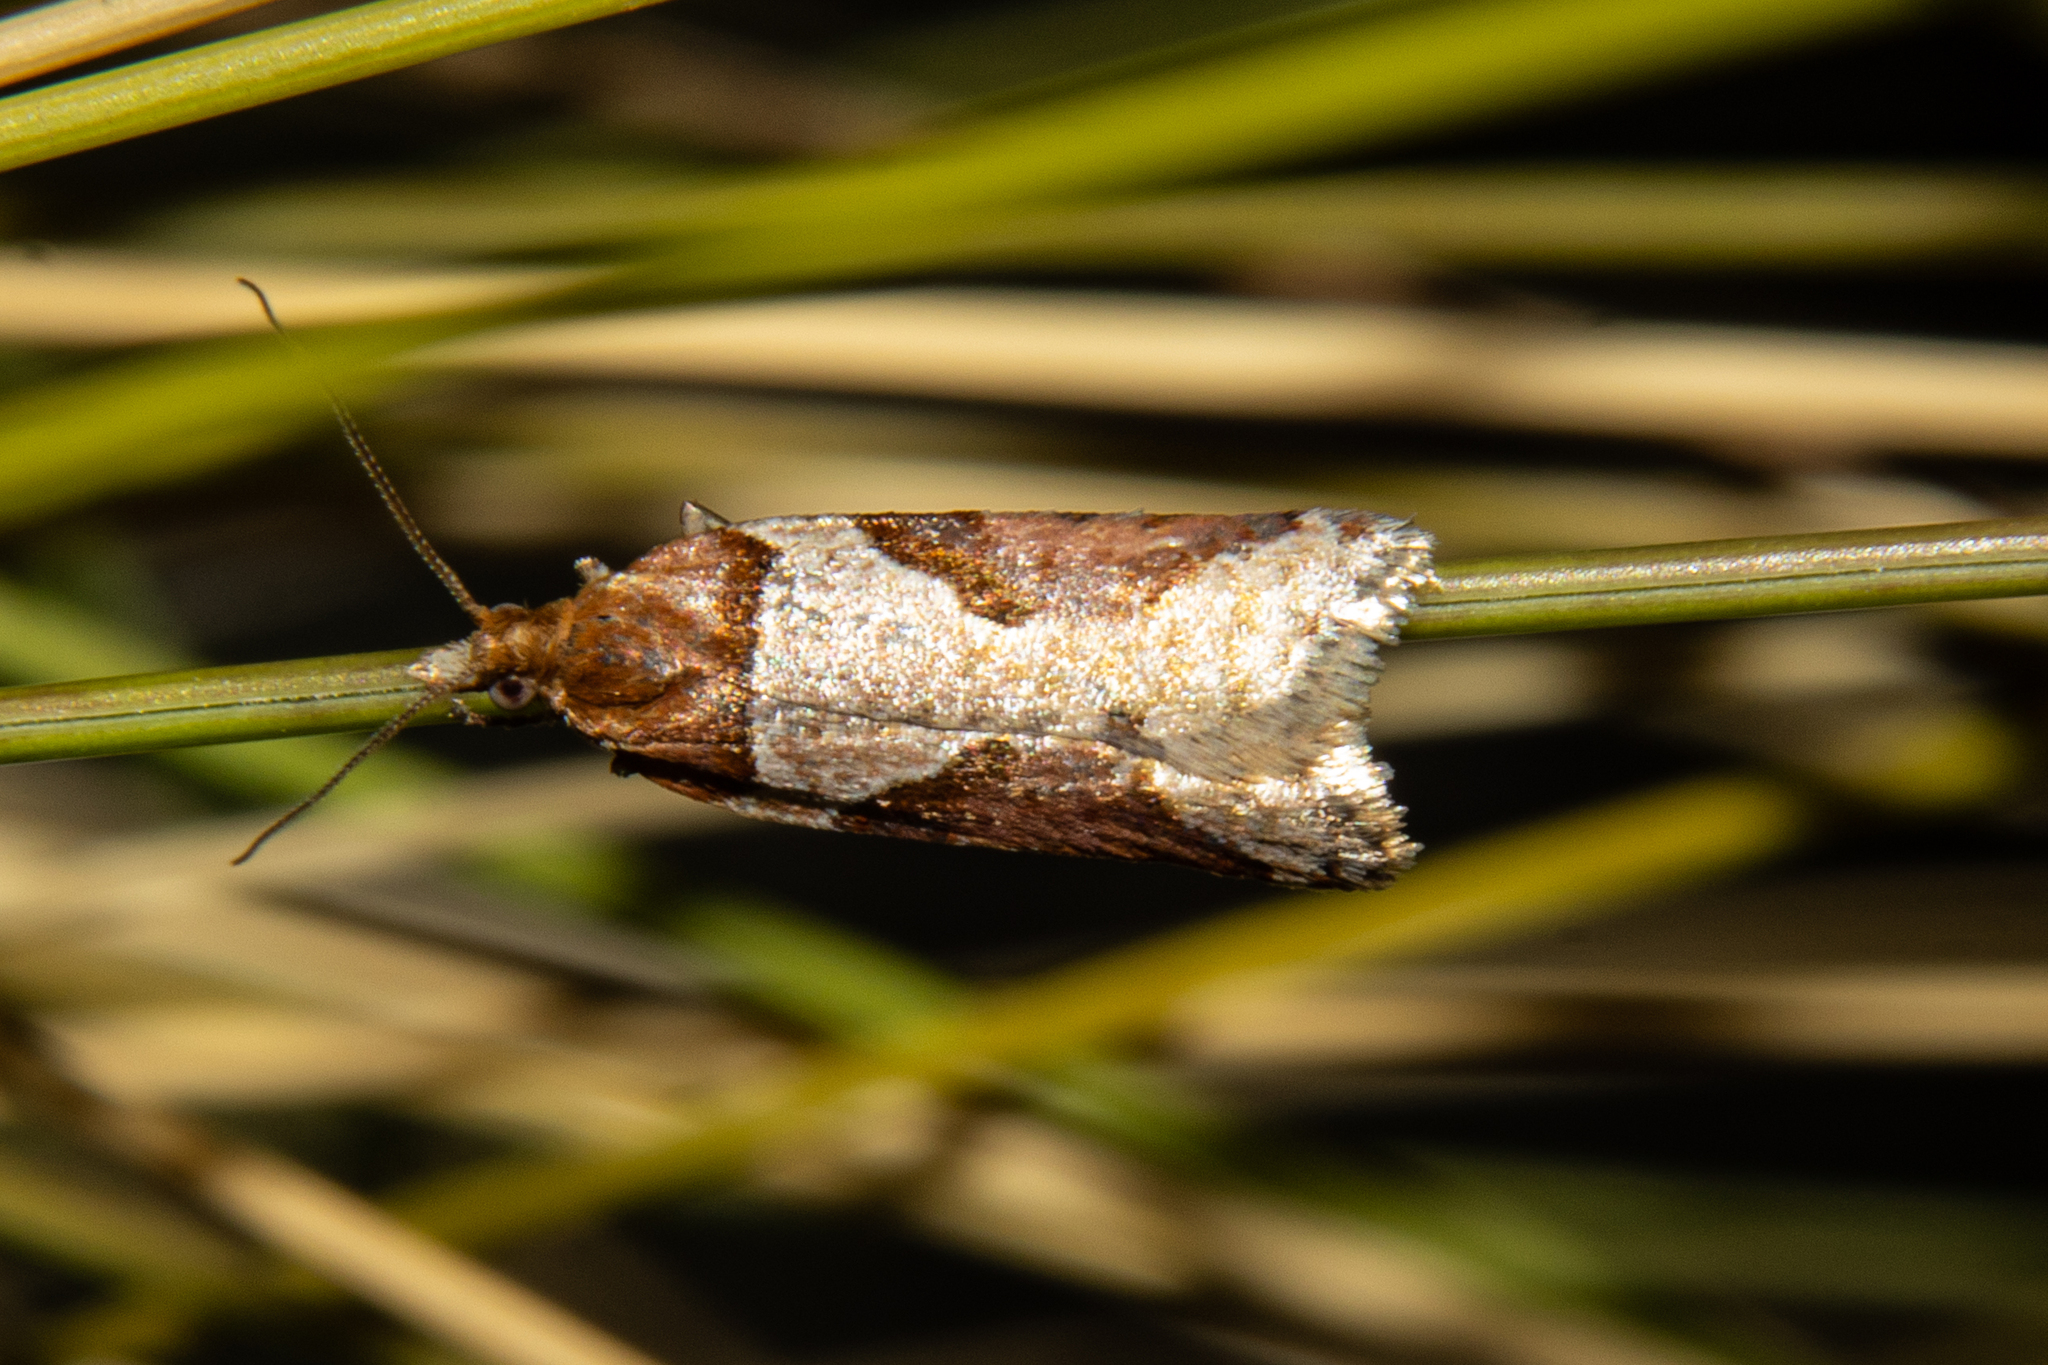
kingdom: Animalia
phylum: Arthropoda
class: Insecta
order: Lepidoptera
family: Tortricidae
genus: Epichorista
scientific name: Epichorista
